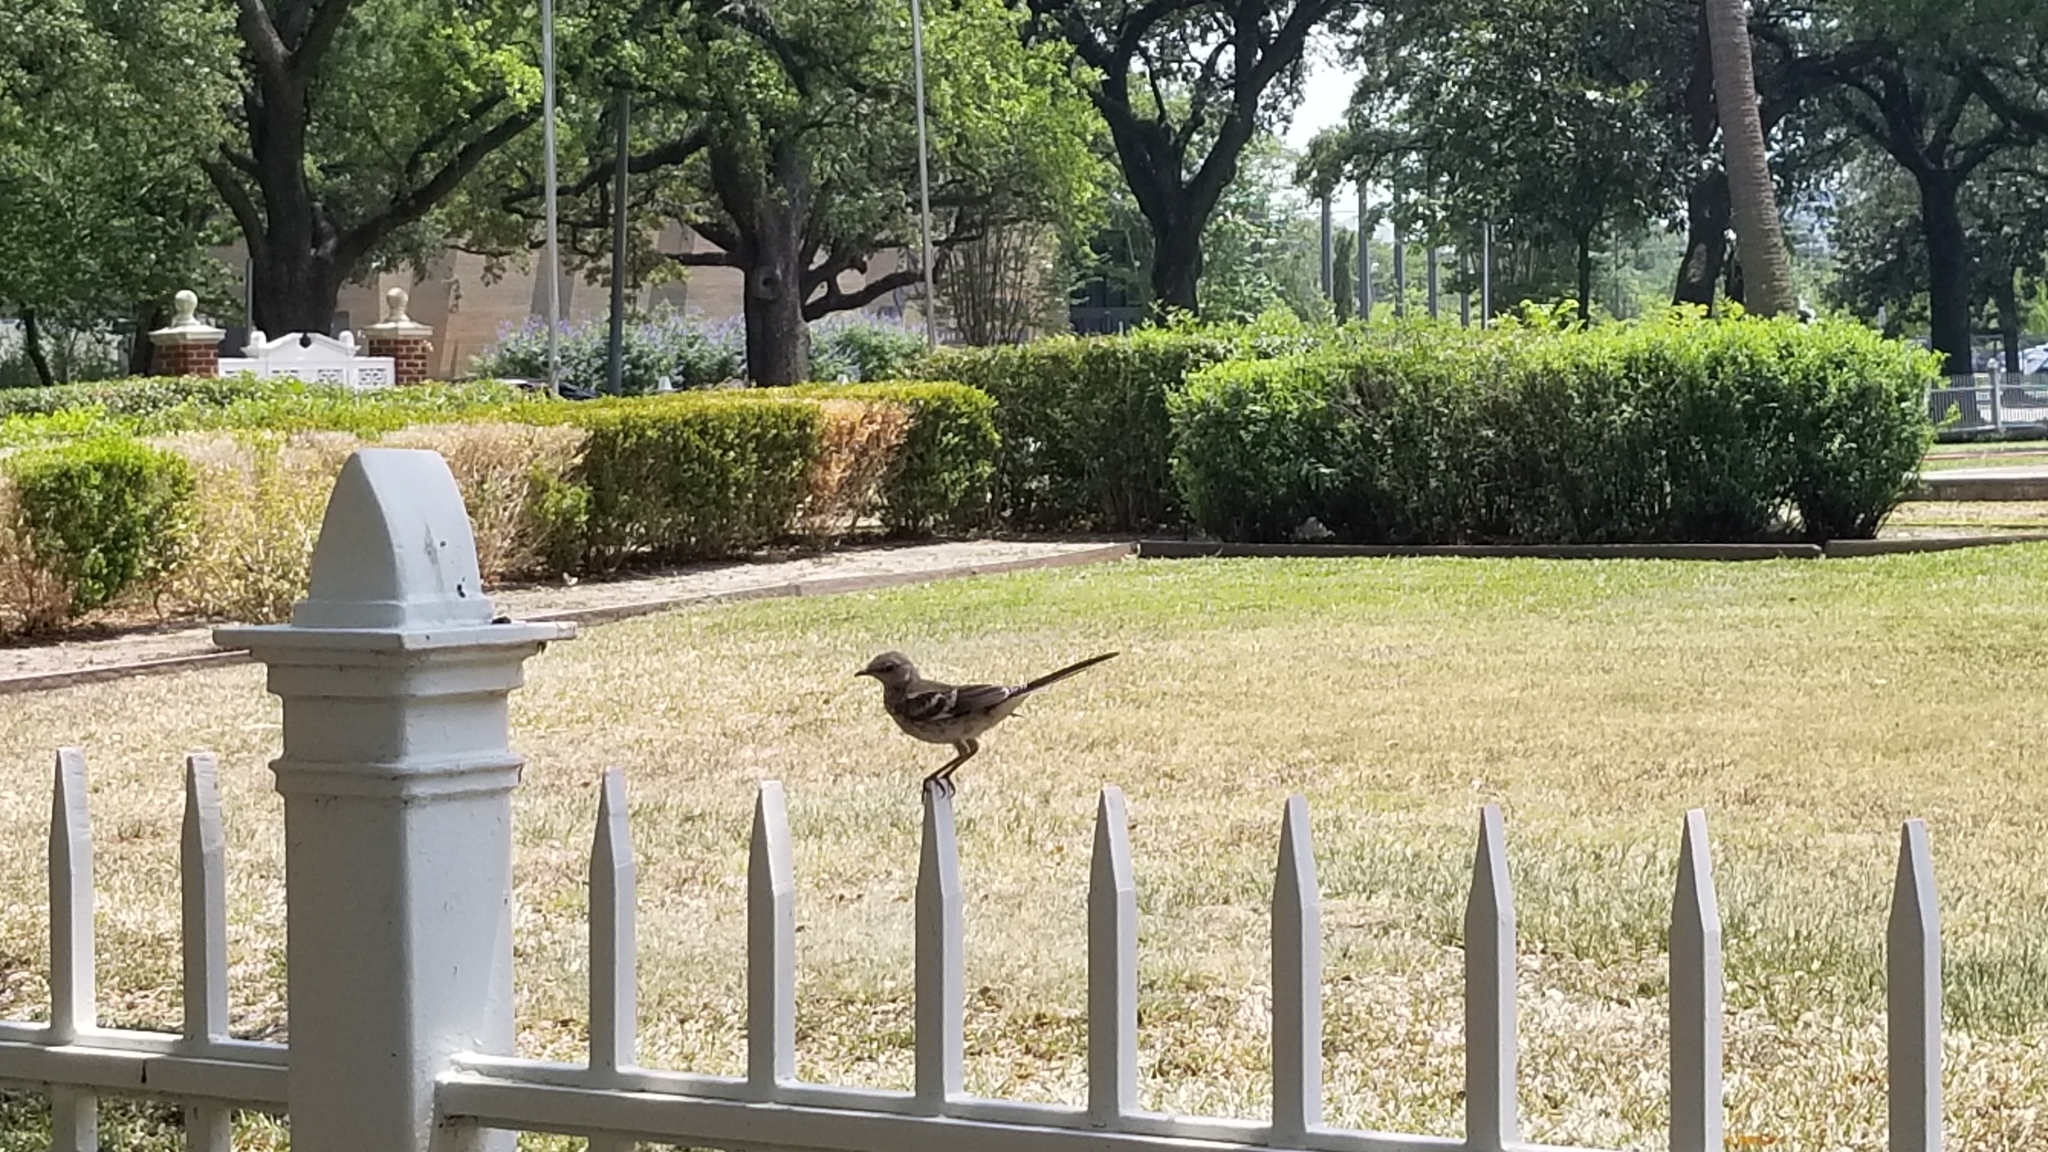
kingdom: Animalia
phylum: Chordata
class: Aves
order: Passeriformes
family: Mimidae
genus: Mimus
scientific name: Mimus polyglottos
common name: Northern mockingbird
